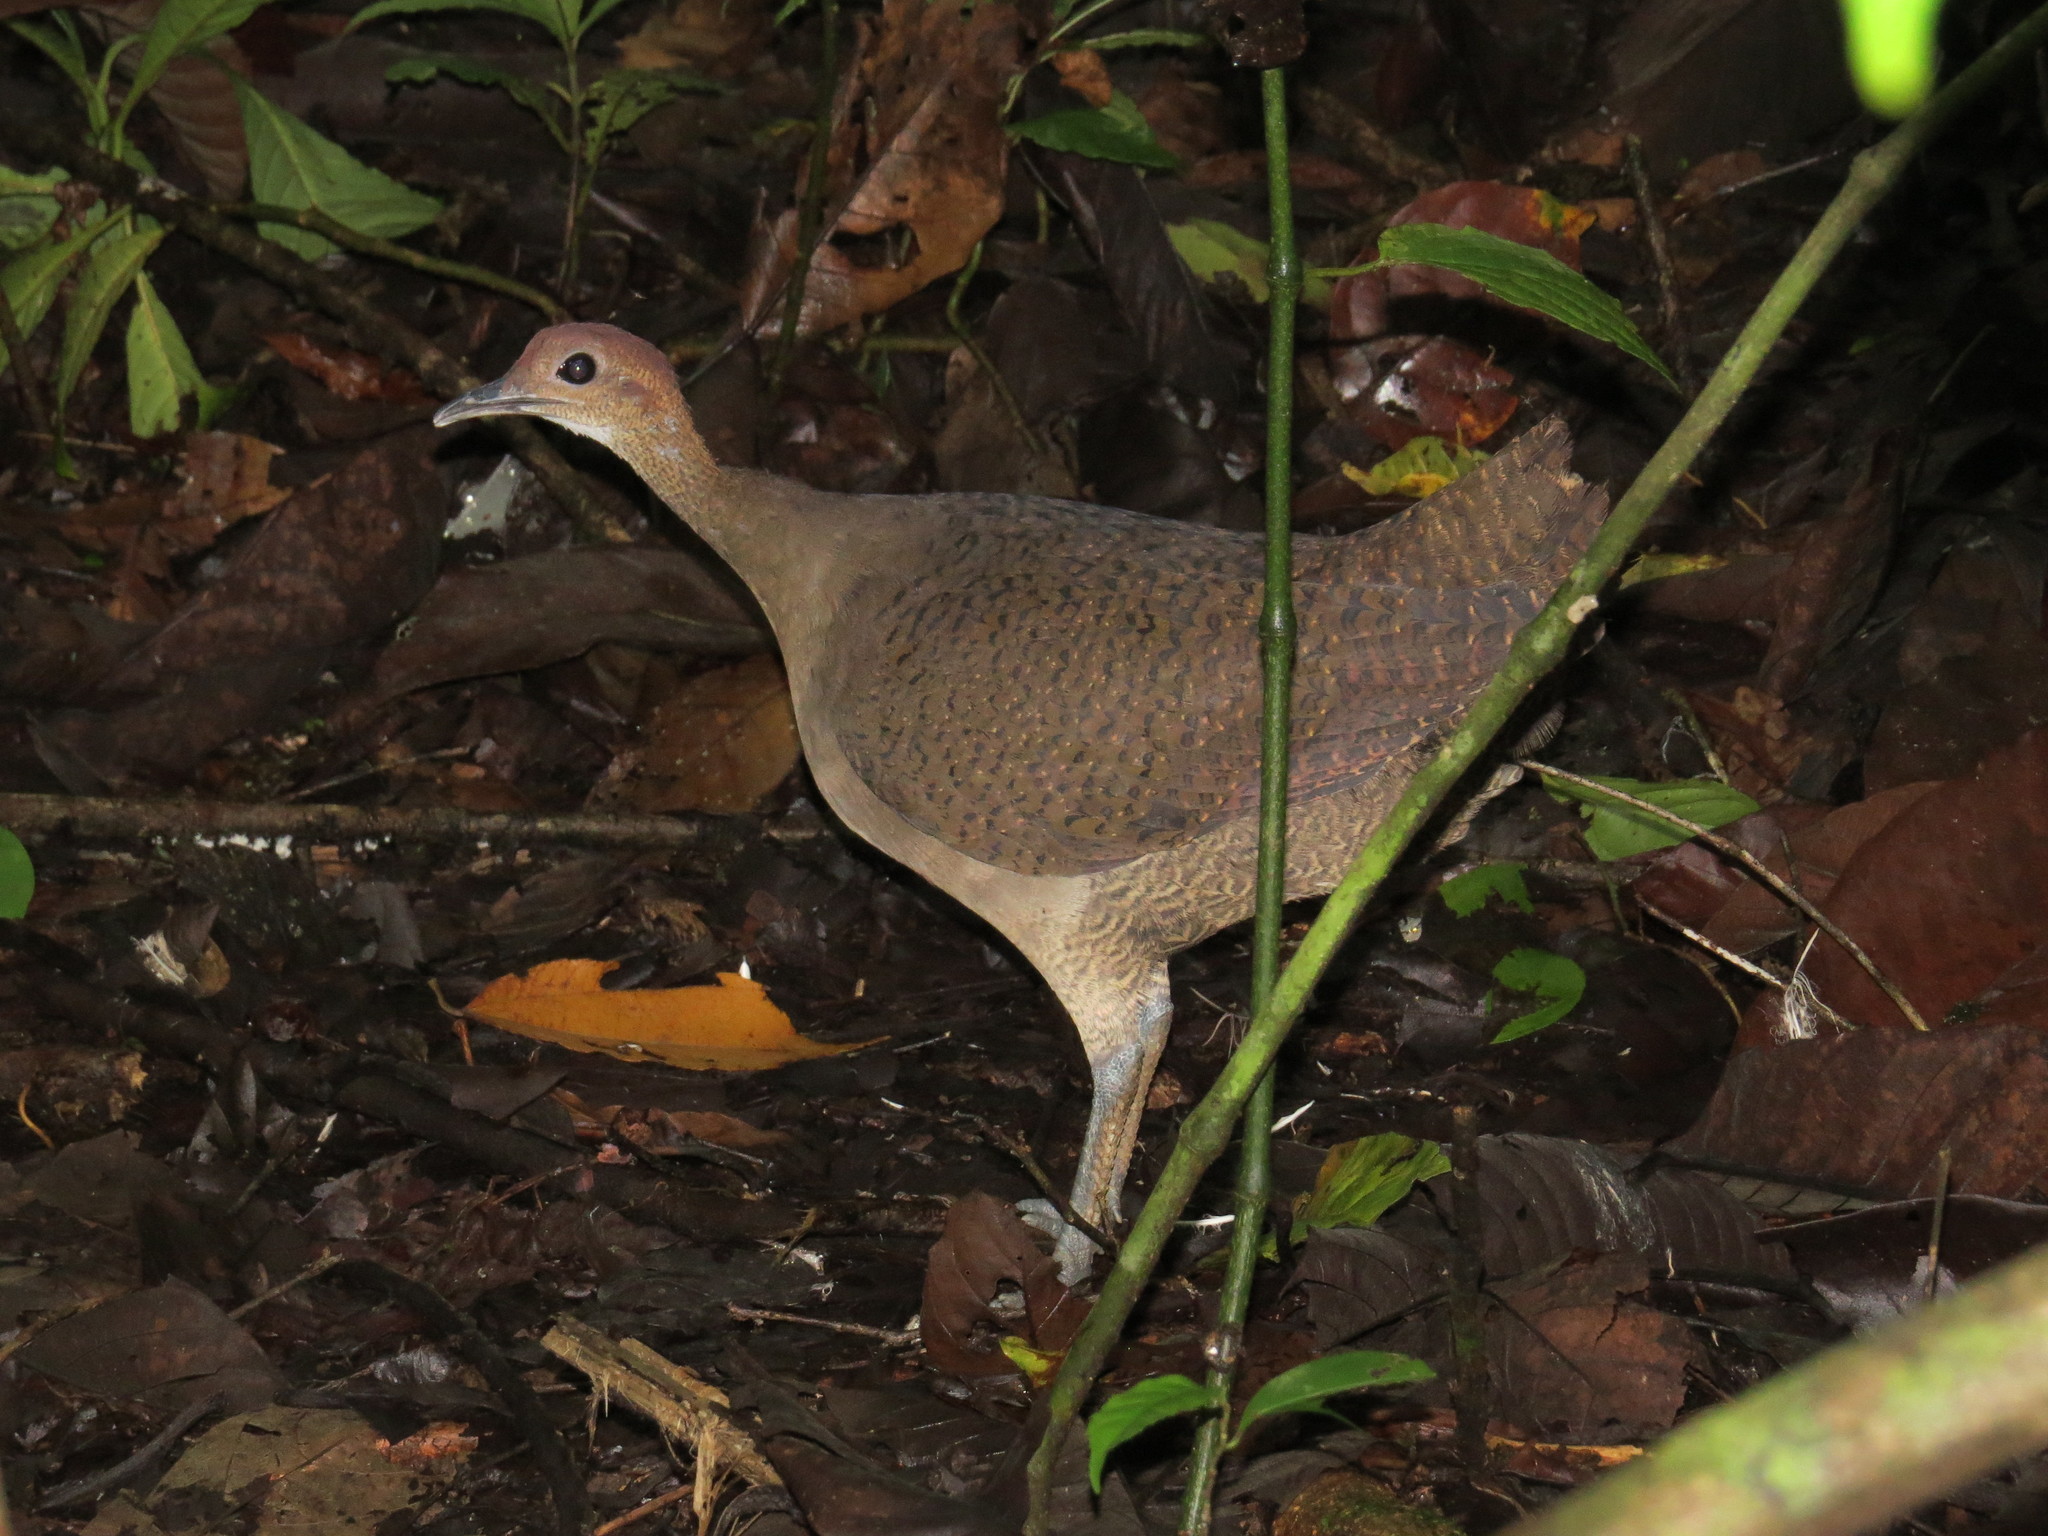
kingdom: Animalia
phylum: Chordata
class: Aves
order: Tinamiformes
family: Tinamidae
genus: Tinamus
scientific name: Tinamus major
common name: Great tinamou
